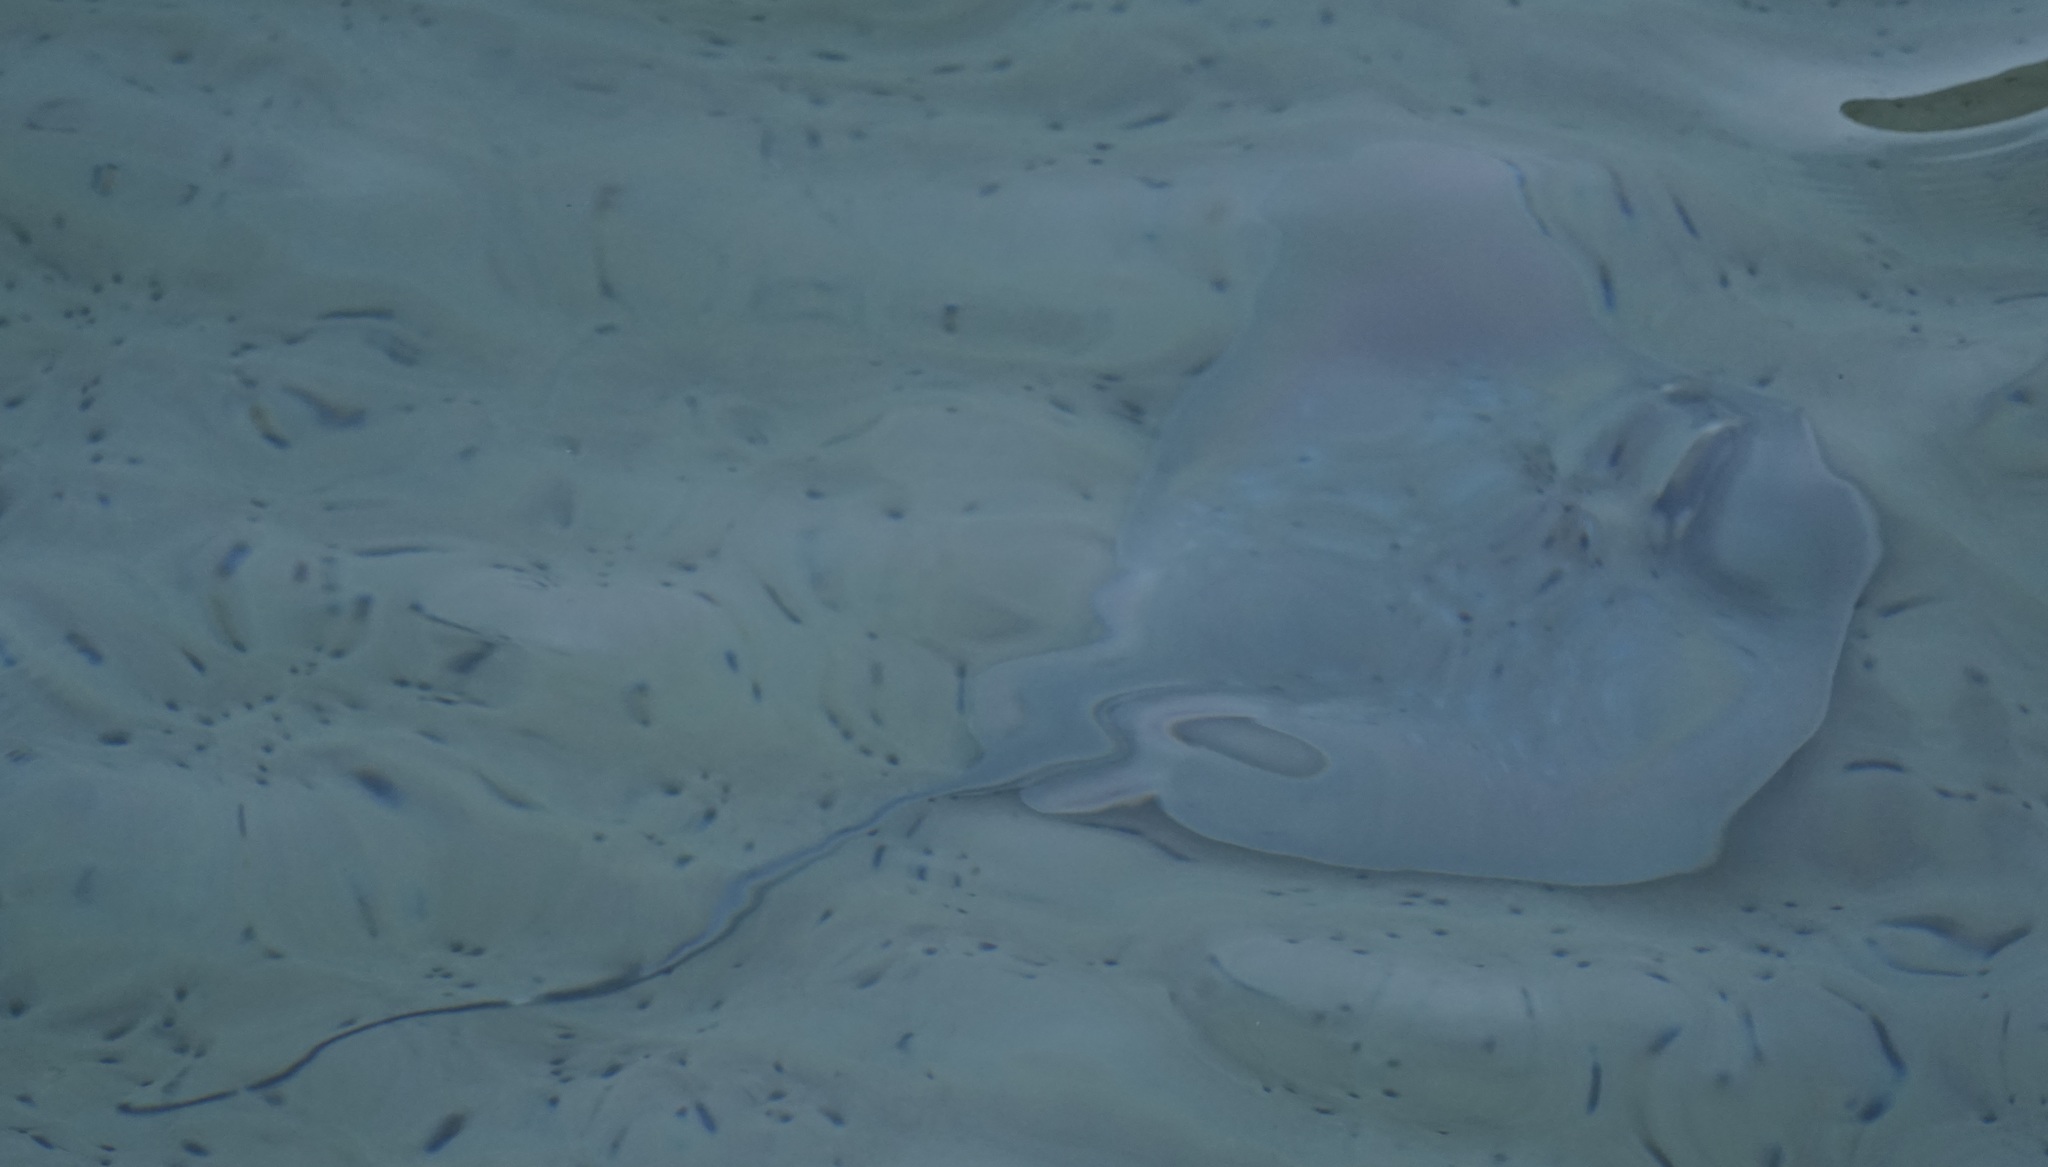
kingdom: Animalia
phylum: Chordata
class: Elasmobranchii
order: Myliobatiformes
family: Dasyatidae
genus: Neotrygon
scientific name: Neotrygon kuhlii
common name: Bluespotted stingray
